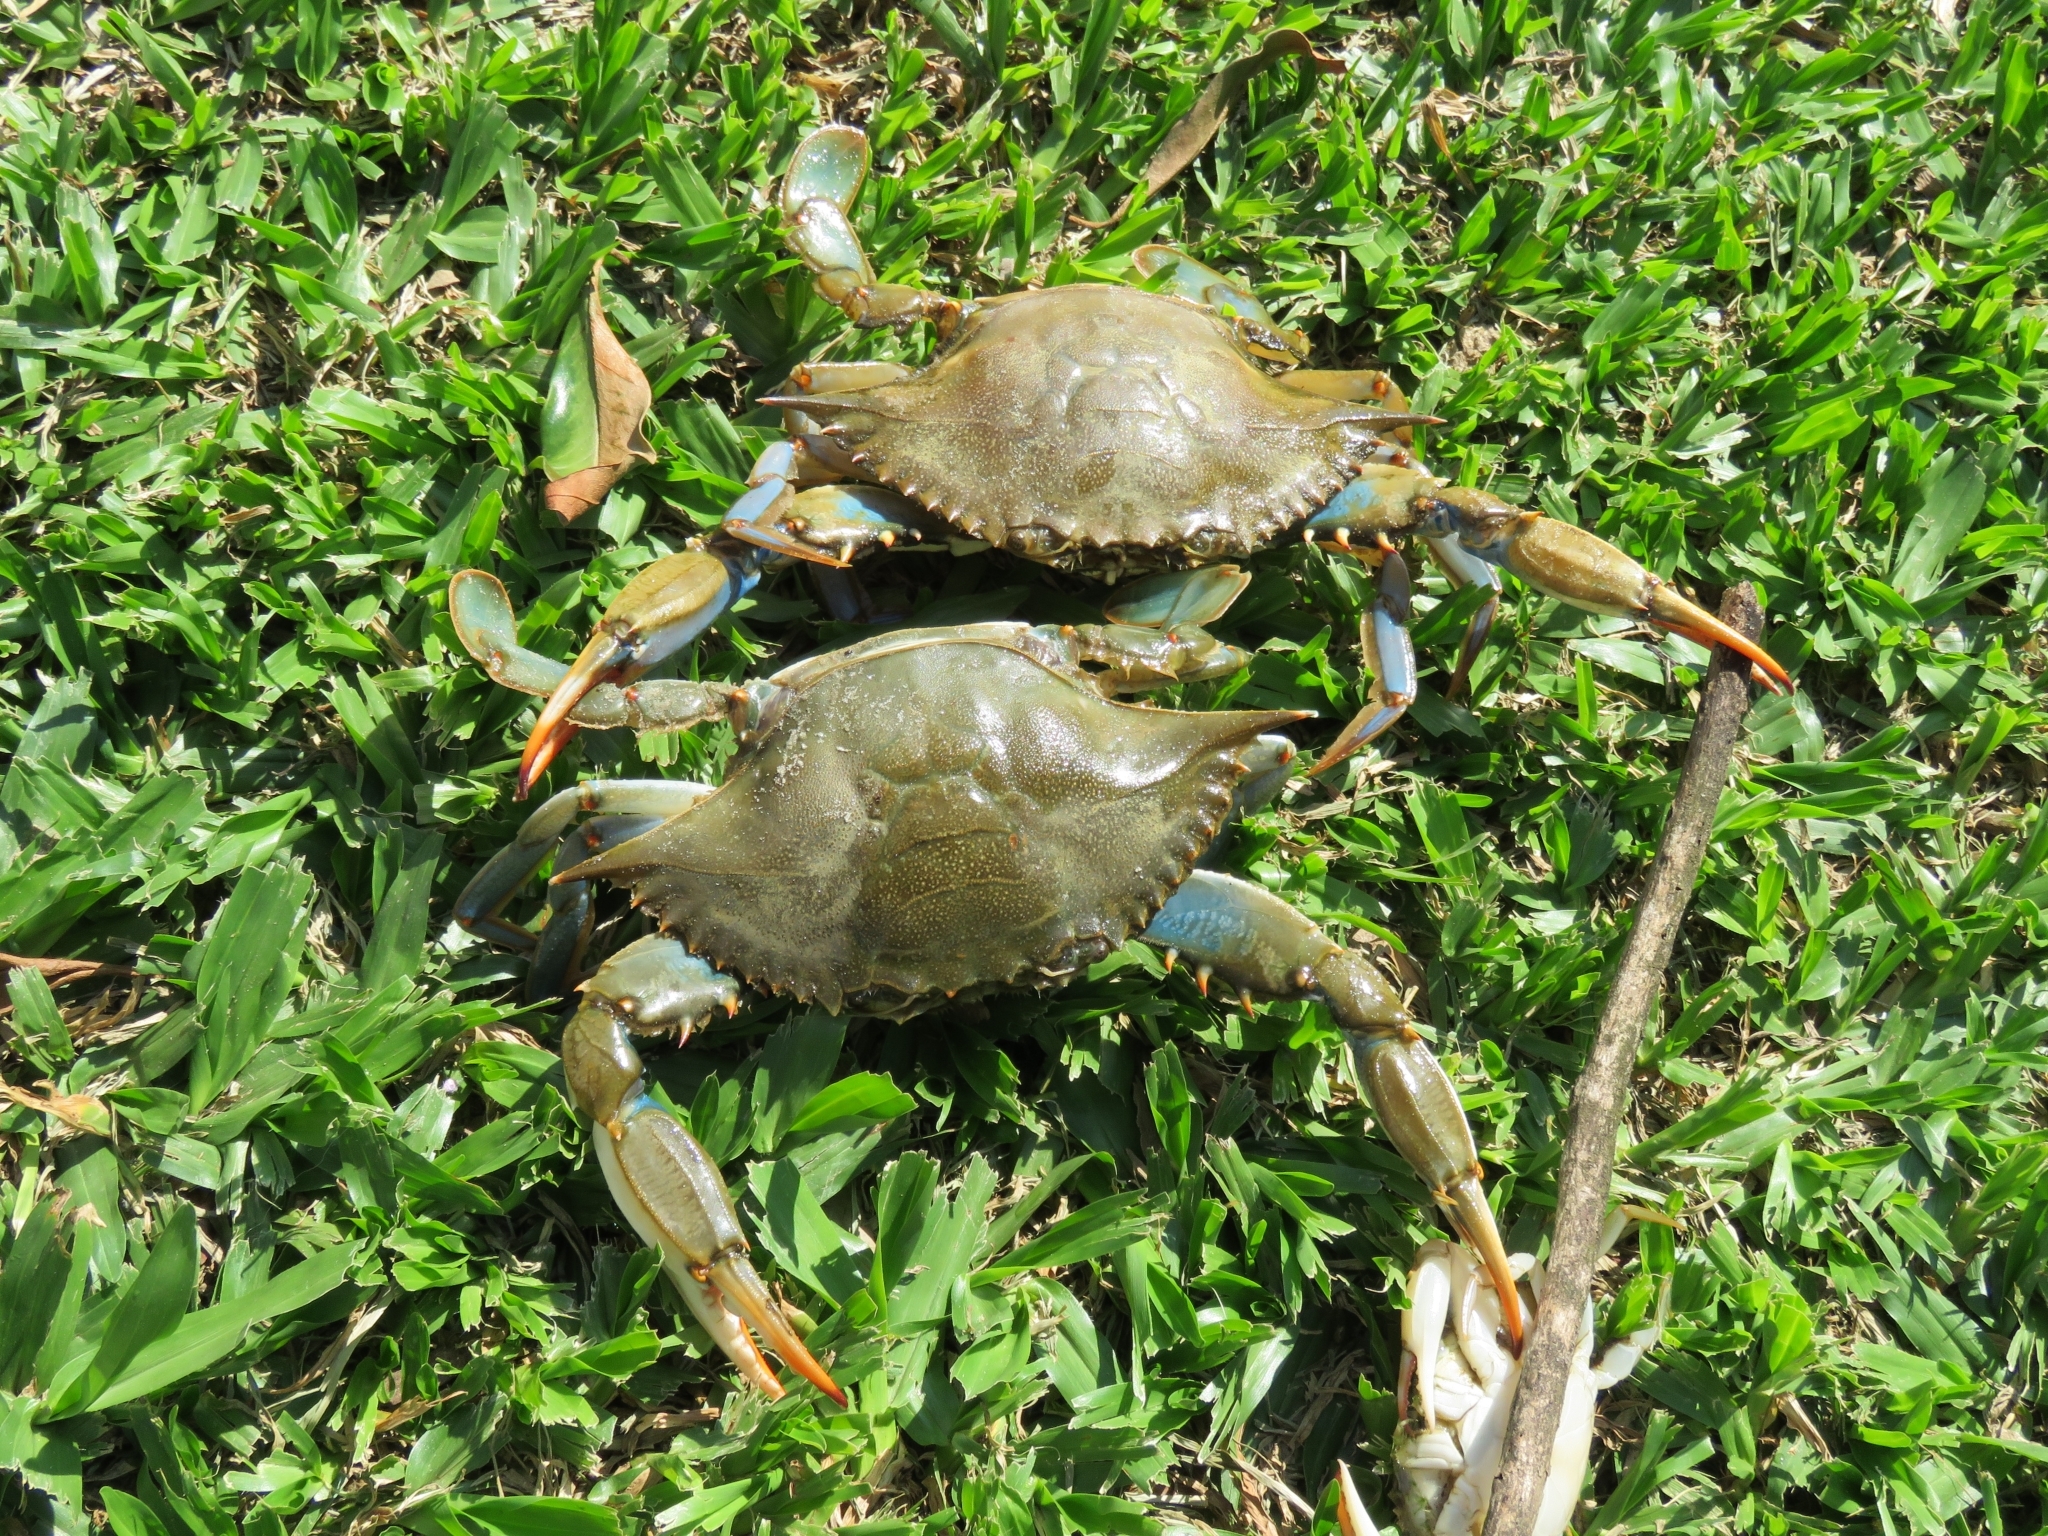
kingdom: Animalia
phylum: Arthropoda
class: Malacostraca
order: Decapoda
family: Portunidae
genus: Callinectes
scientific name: Callinectes sapidus
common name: Blue crab
